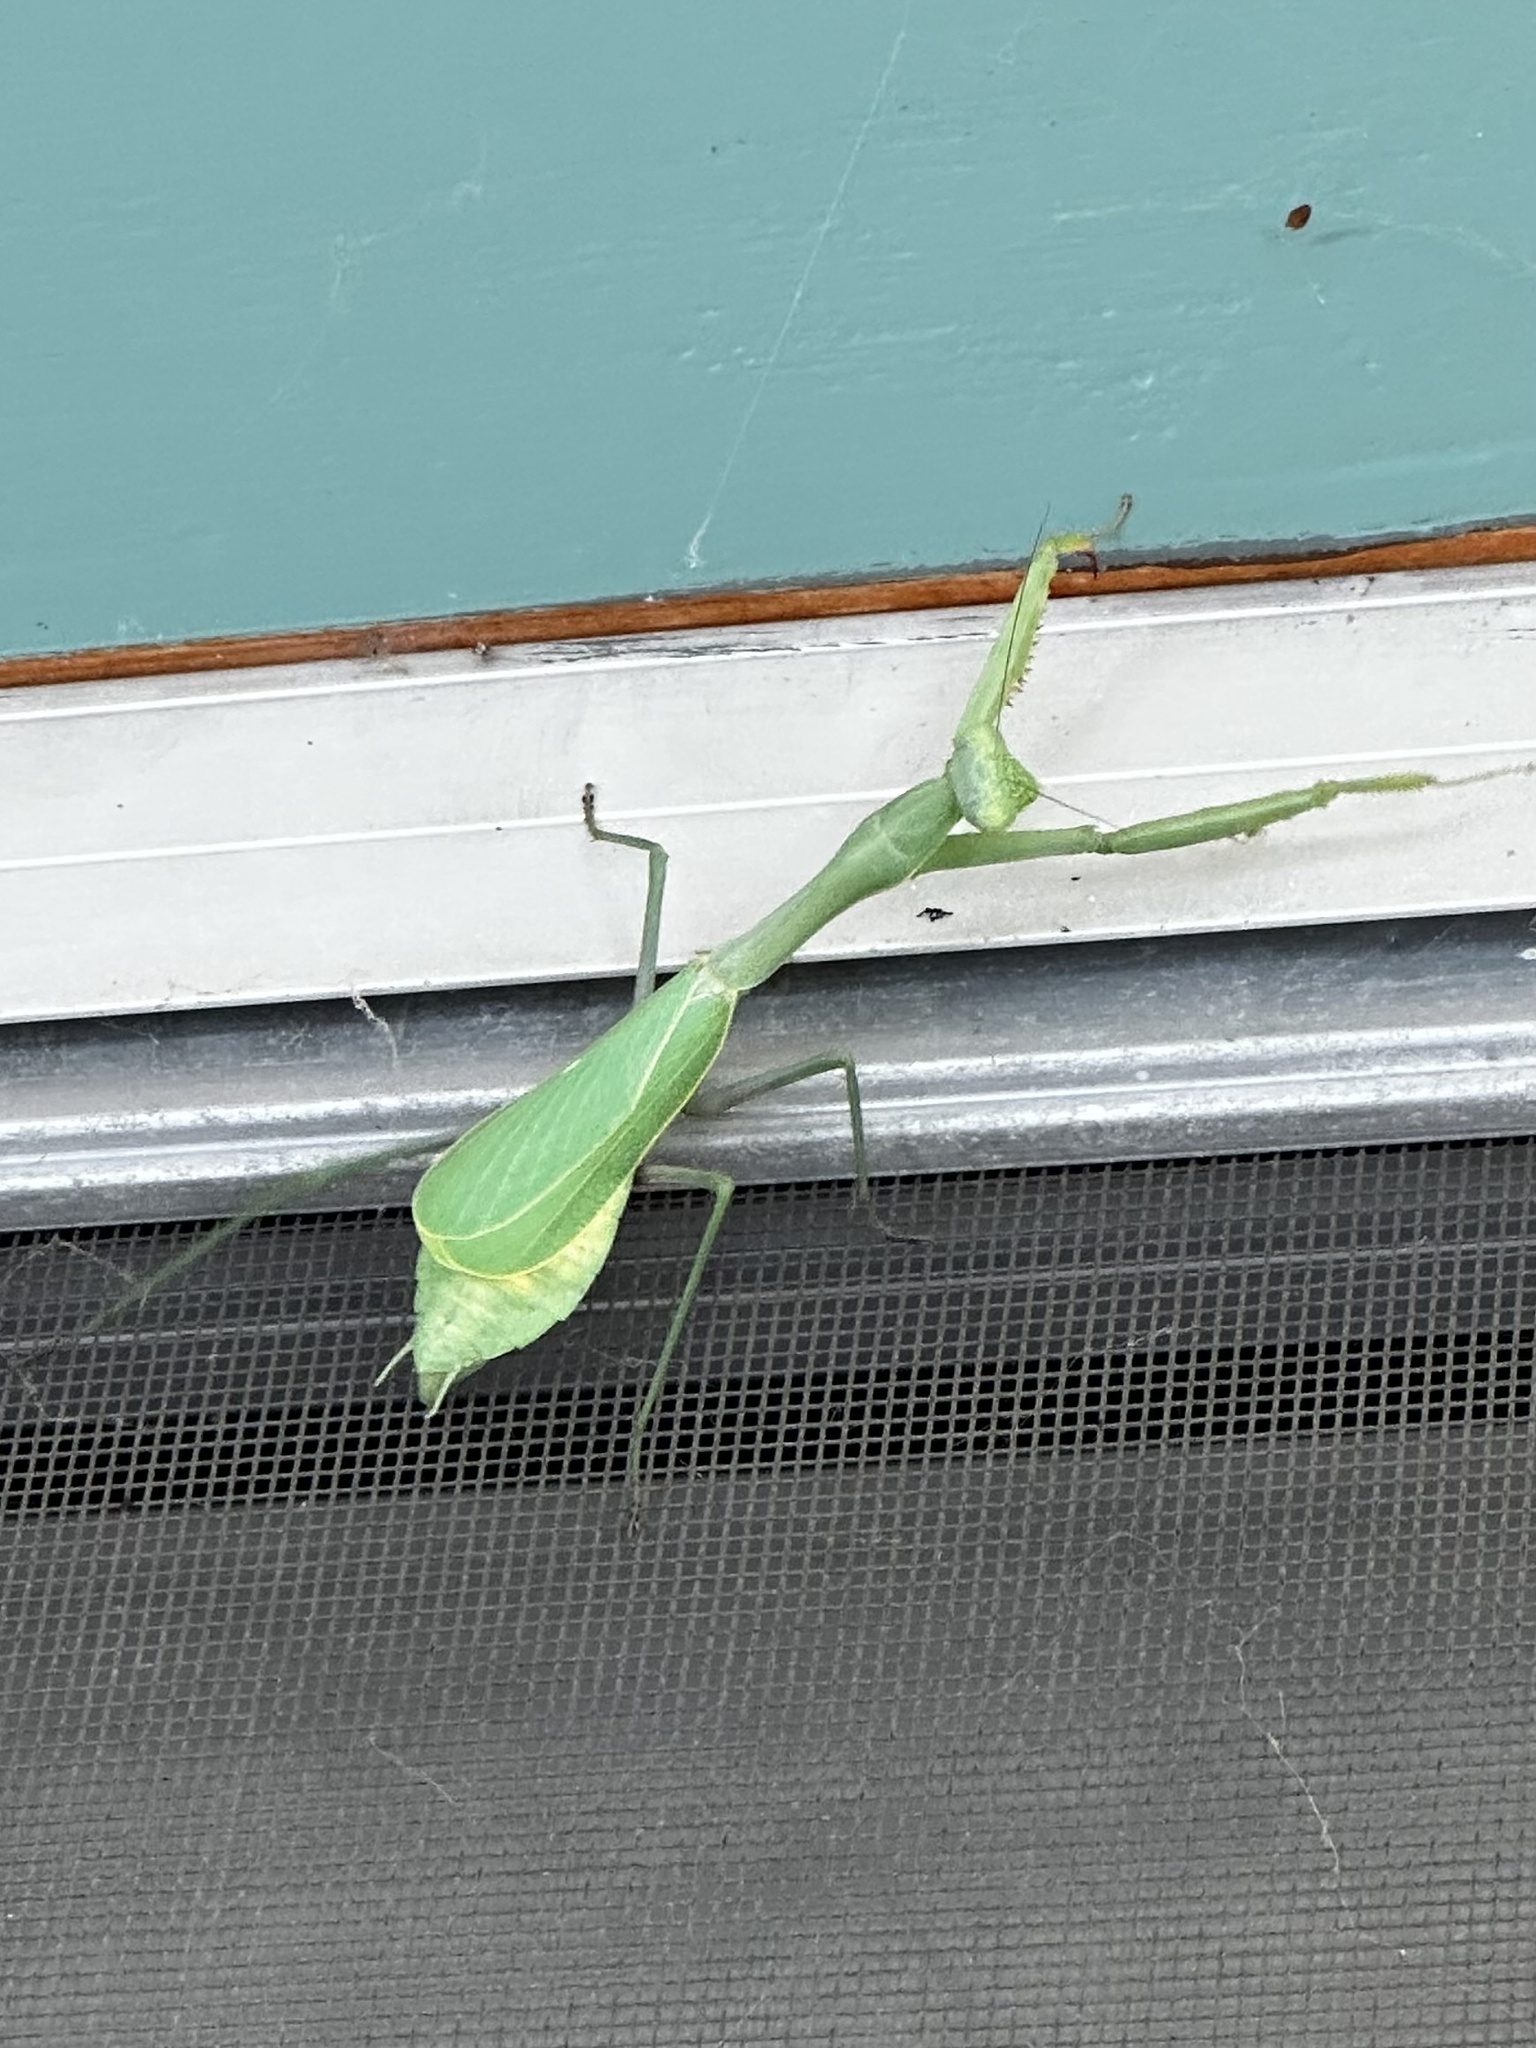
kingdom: Animalia
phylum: Arthropoda
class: Insecta
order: Mantodea
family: Mantidae
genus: Stagmomantis
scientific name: Stagmomantis limbata
